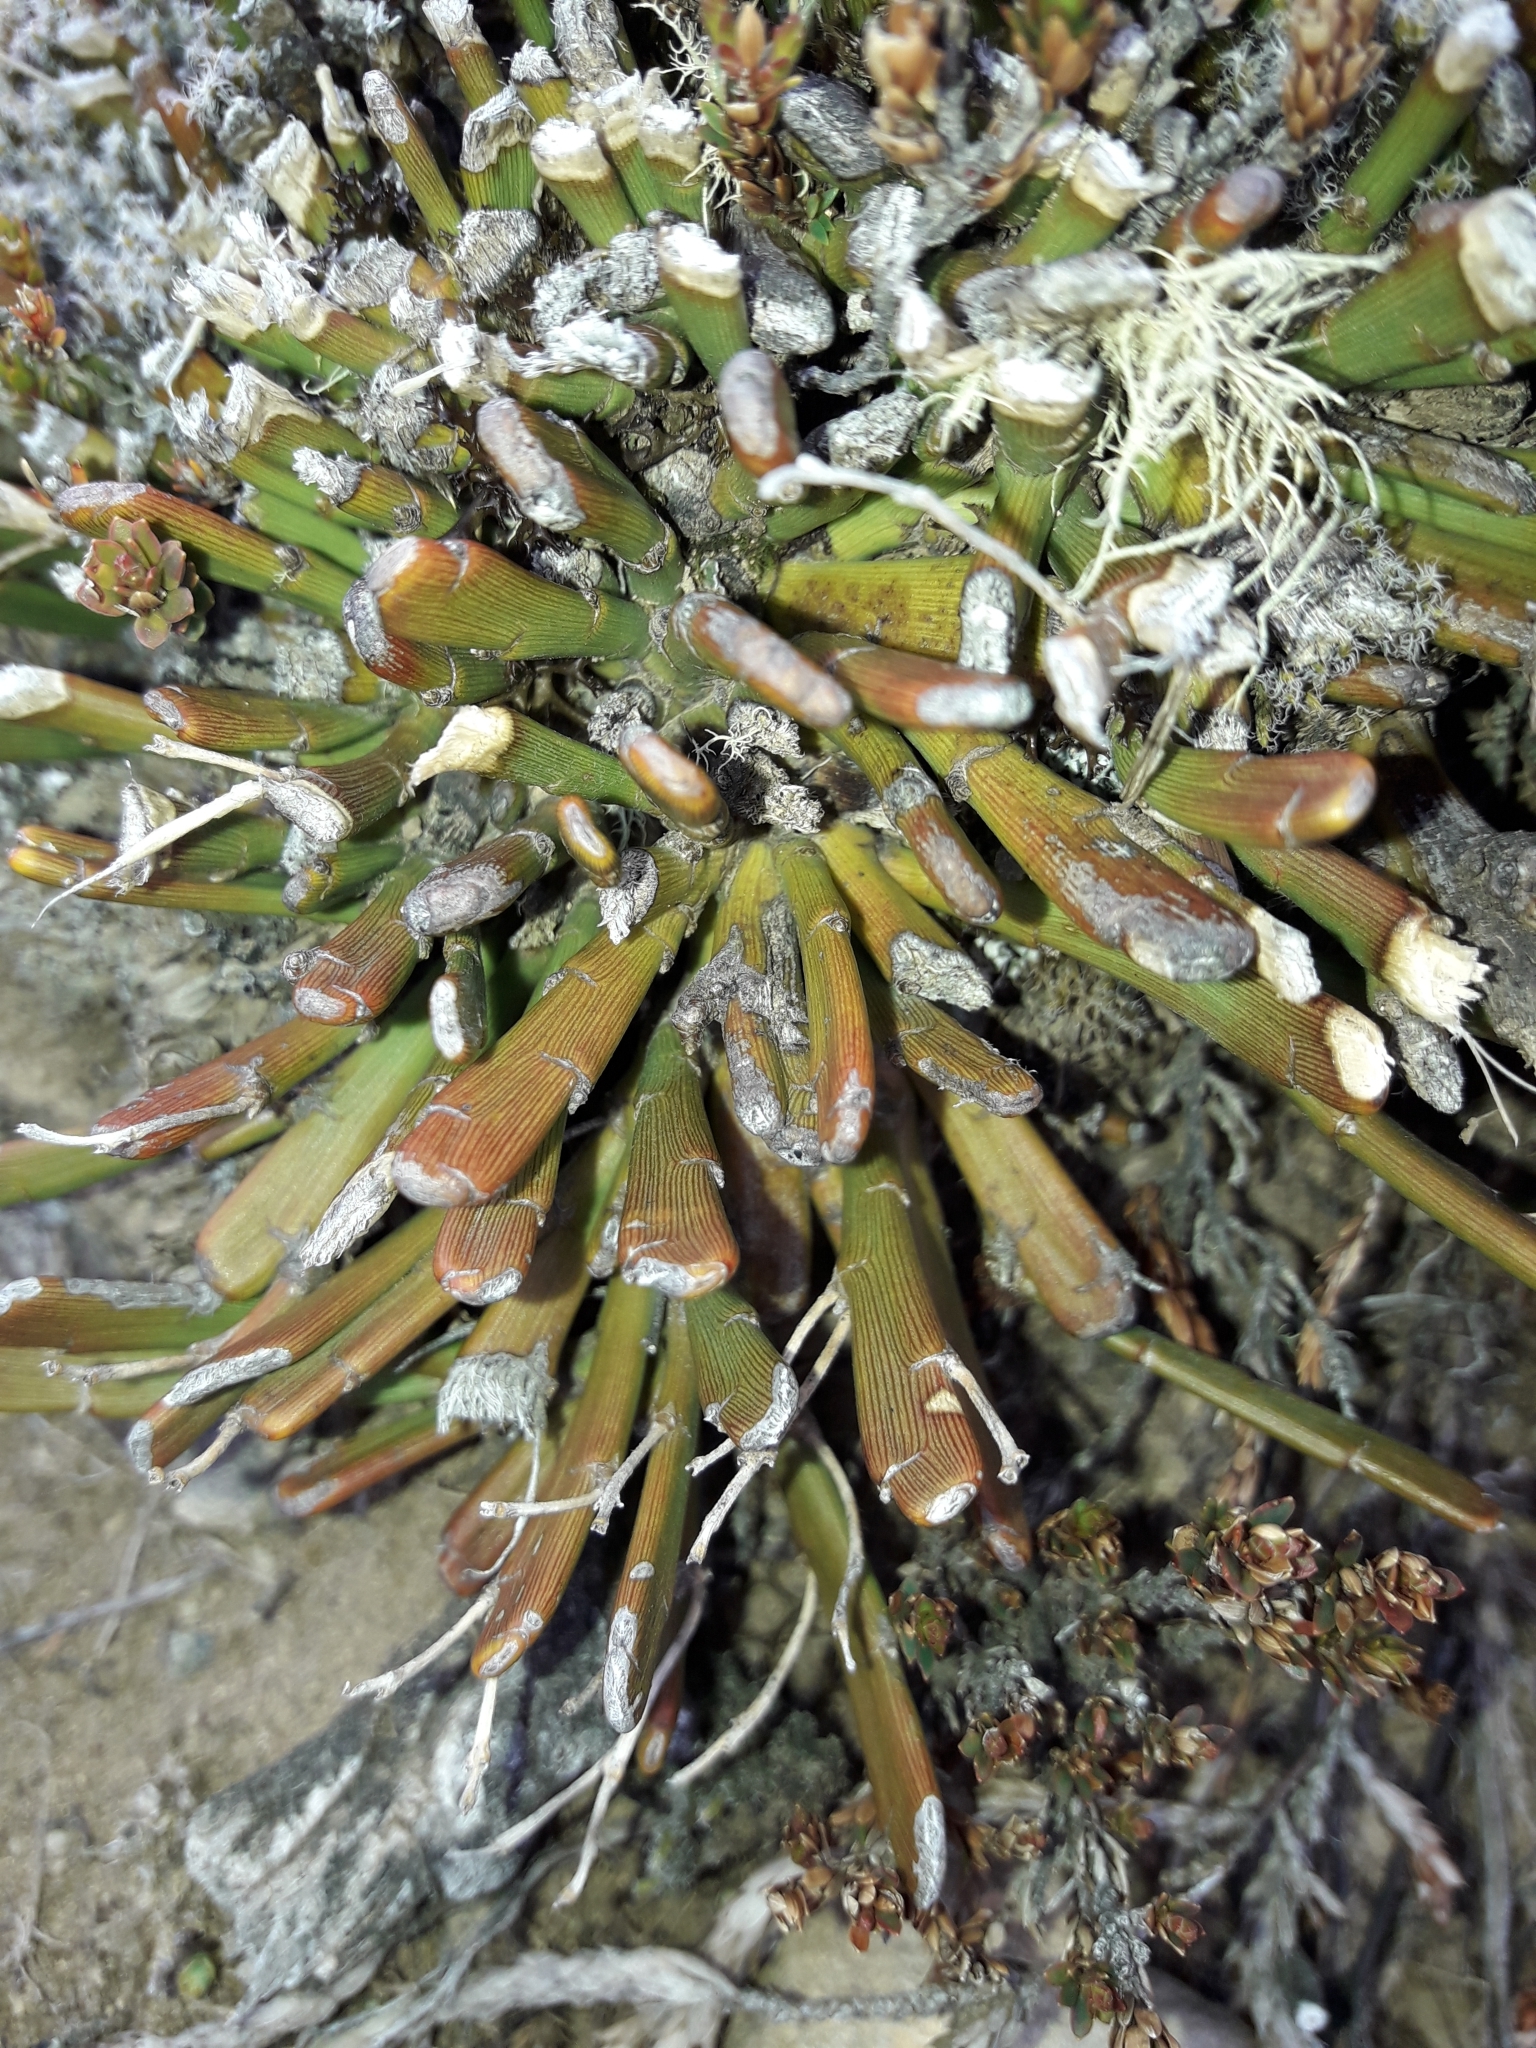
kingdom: Plantae
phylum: Tracheophyta
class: Magnoliopsida
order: Fabales
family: Fabaceae
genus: Carmichaelia
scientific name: Carmichaelia monroi
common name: Stout dwarf broom
